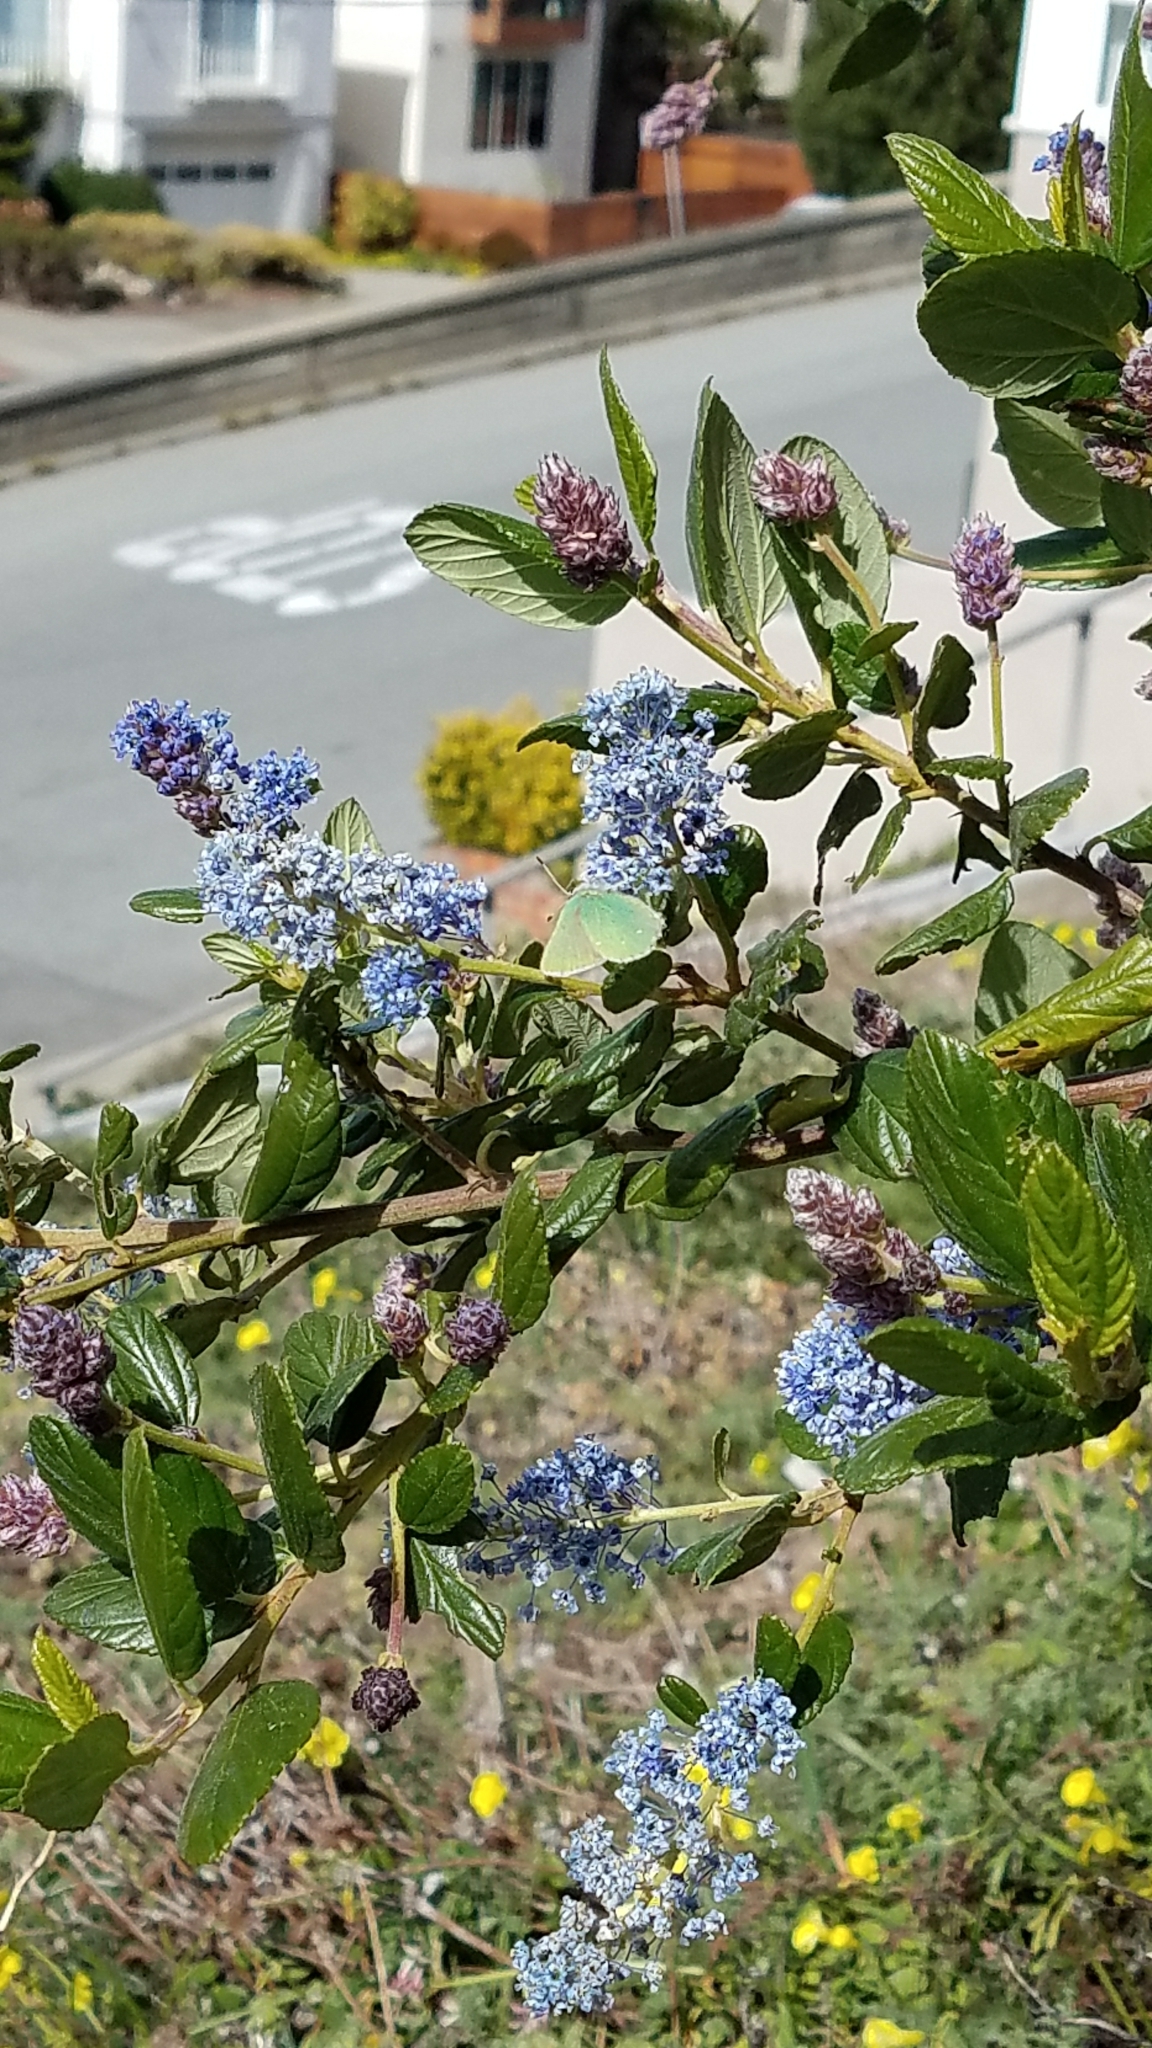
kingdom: Animalia
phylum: Arthropoda
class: Insecta
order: Lepidoptera
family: Lycaenidae
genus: Callophrys
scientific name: Callophrys viridis
